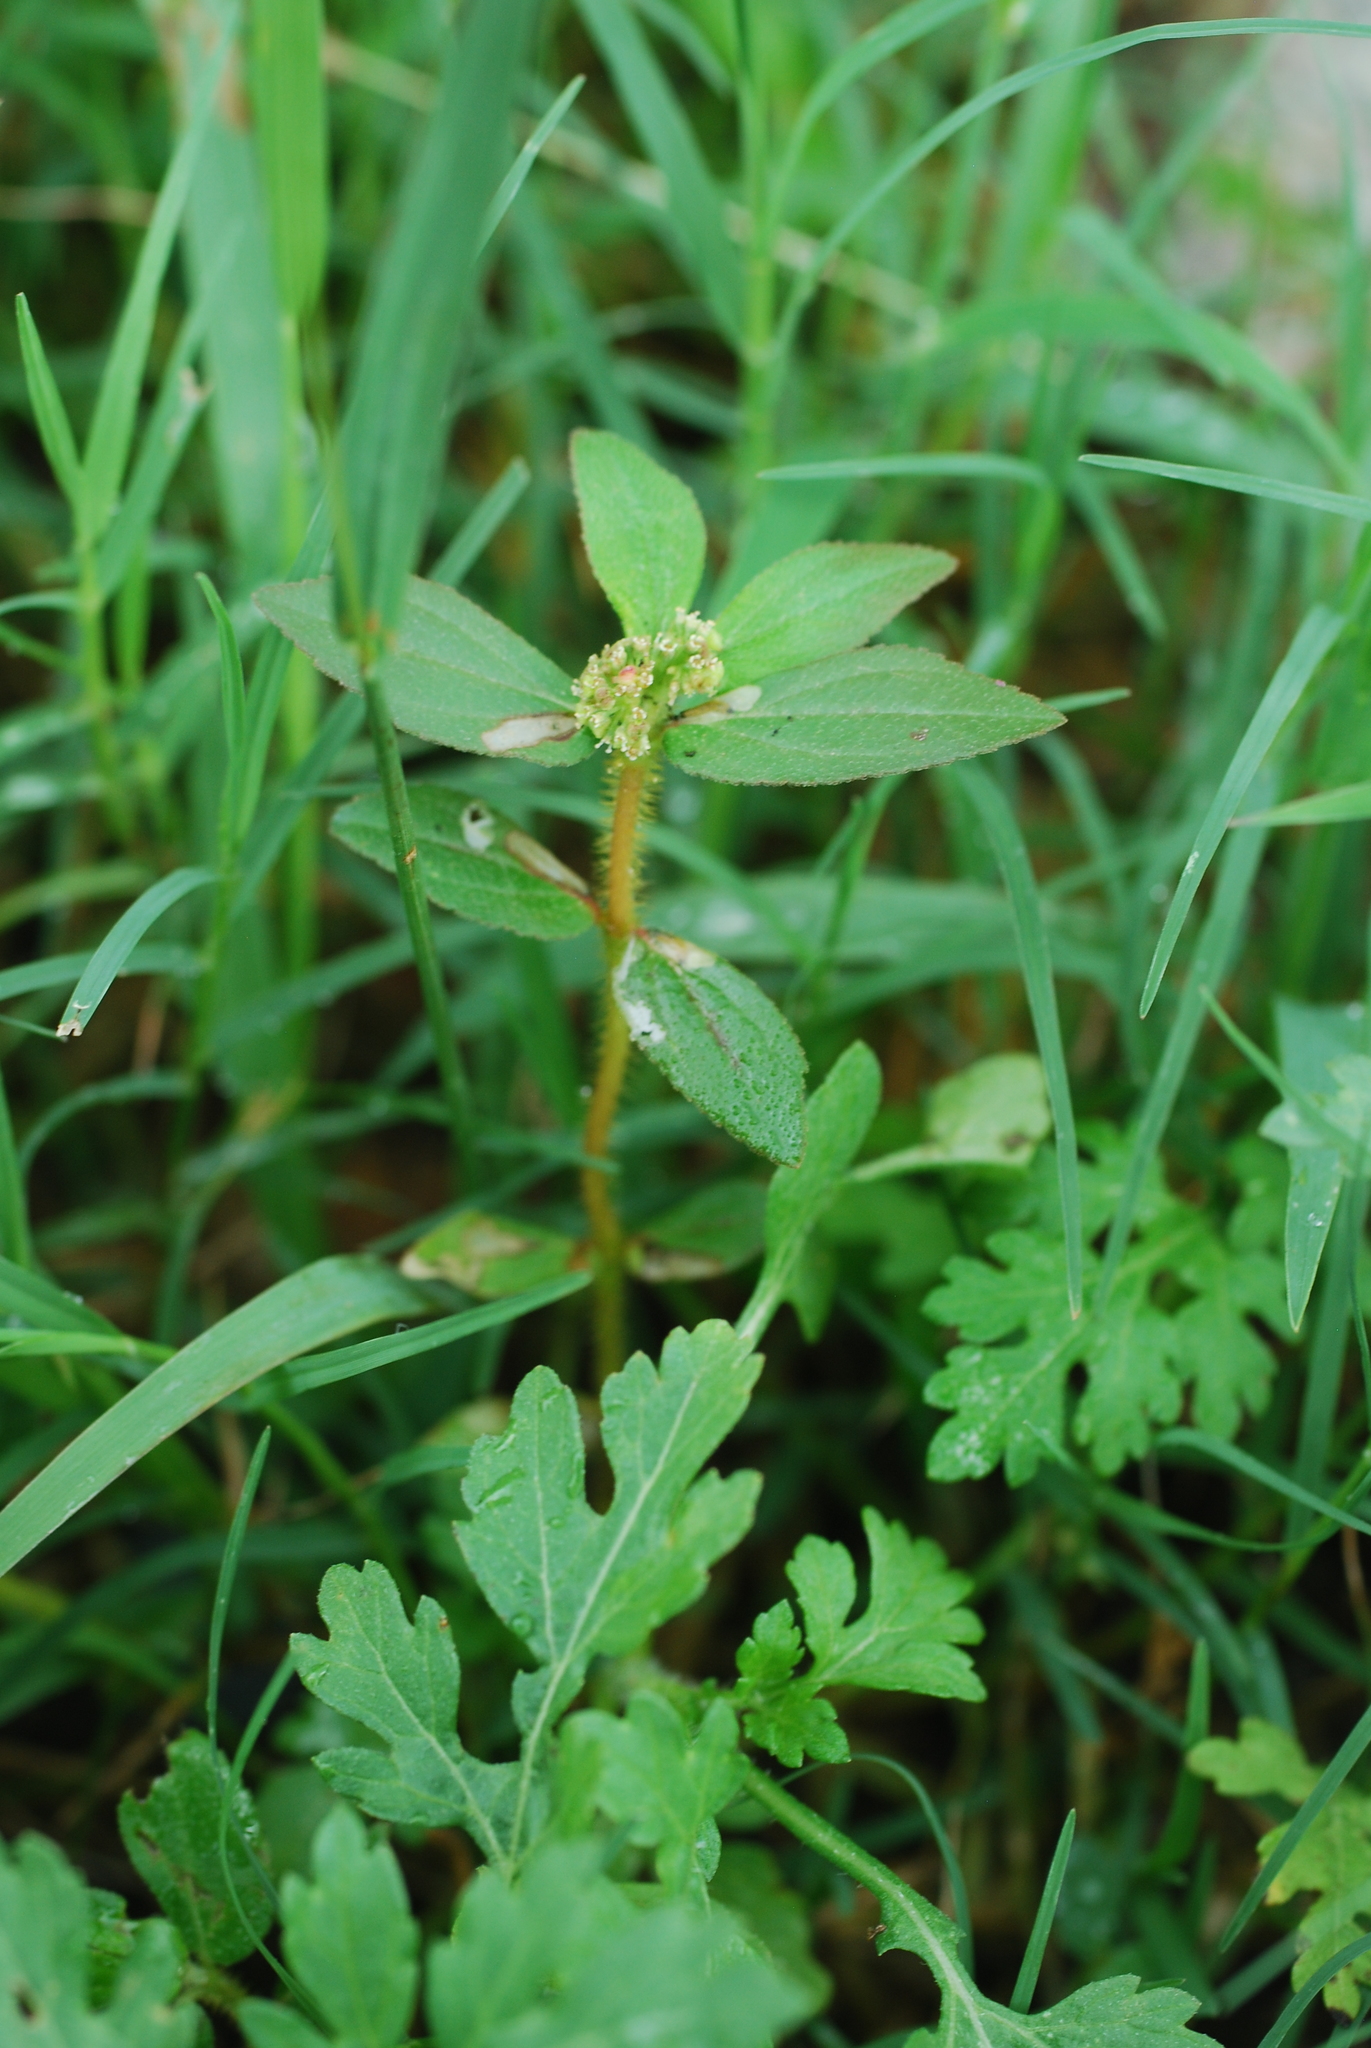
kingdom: Plantae
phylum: Tracheophyta
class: Magnoliopsida
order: Malpighiales
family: Euphorbiaceae
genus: Euphorbia
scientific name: Euphorbia hirta
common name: Pillpod sandmat
